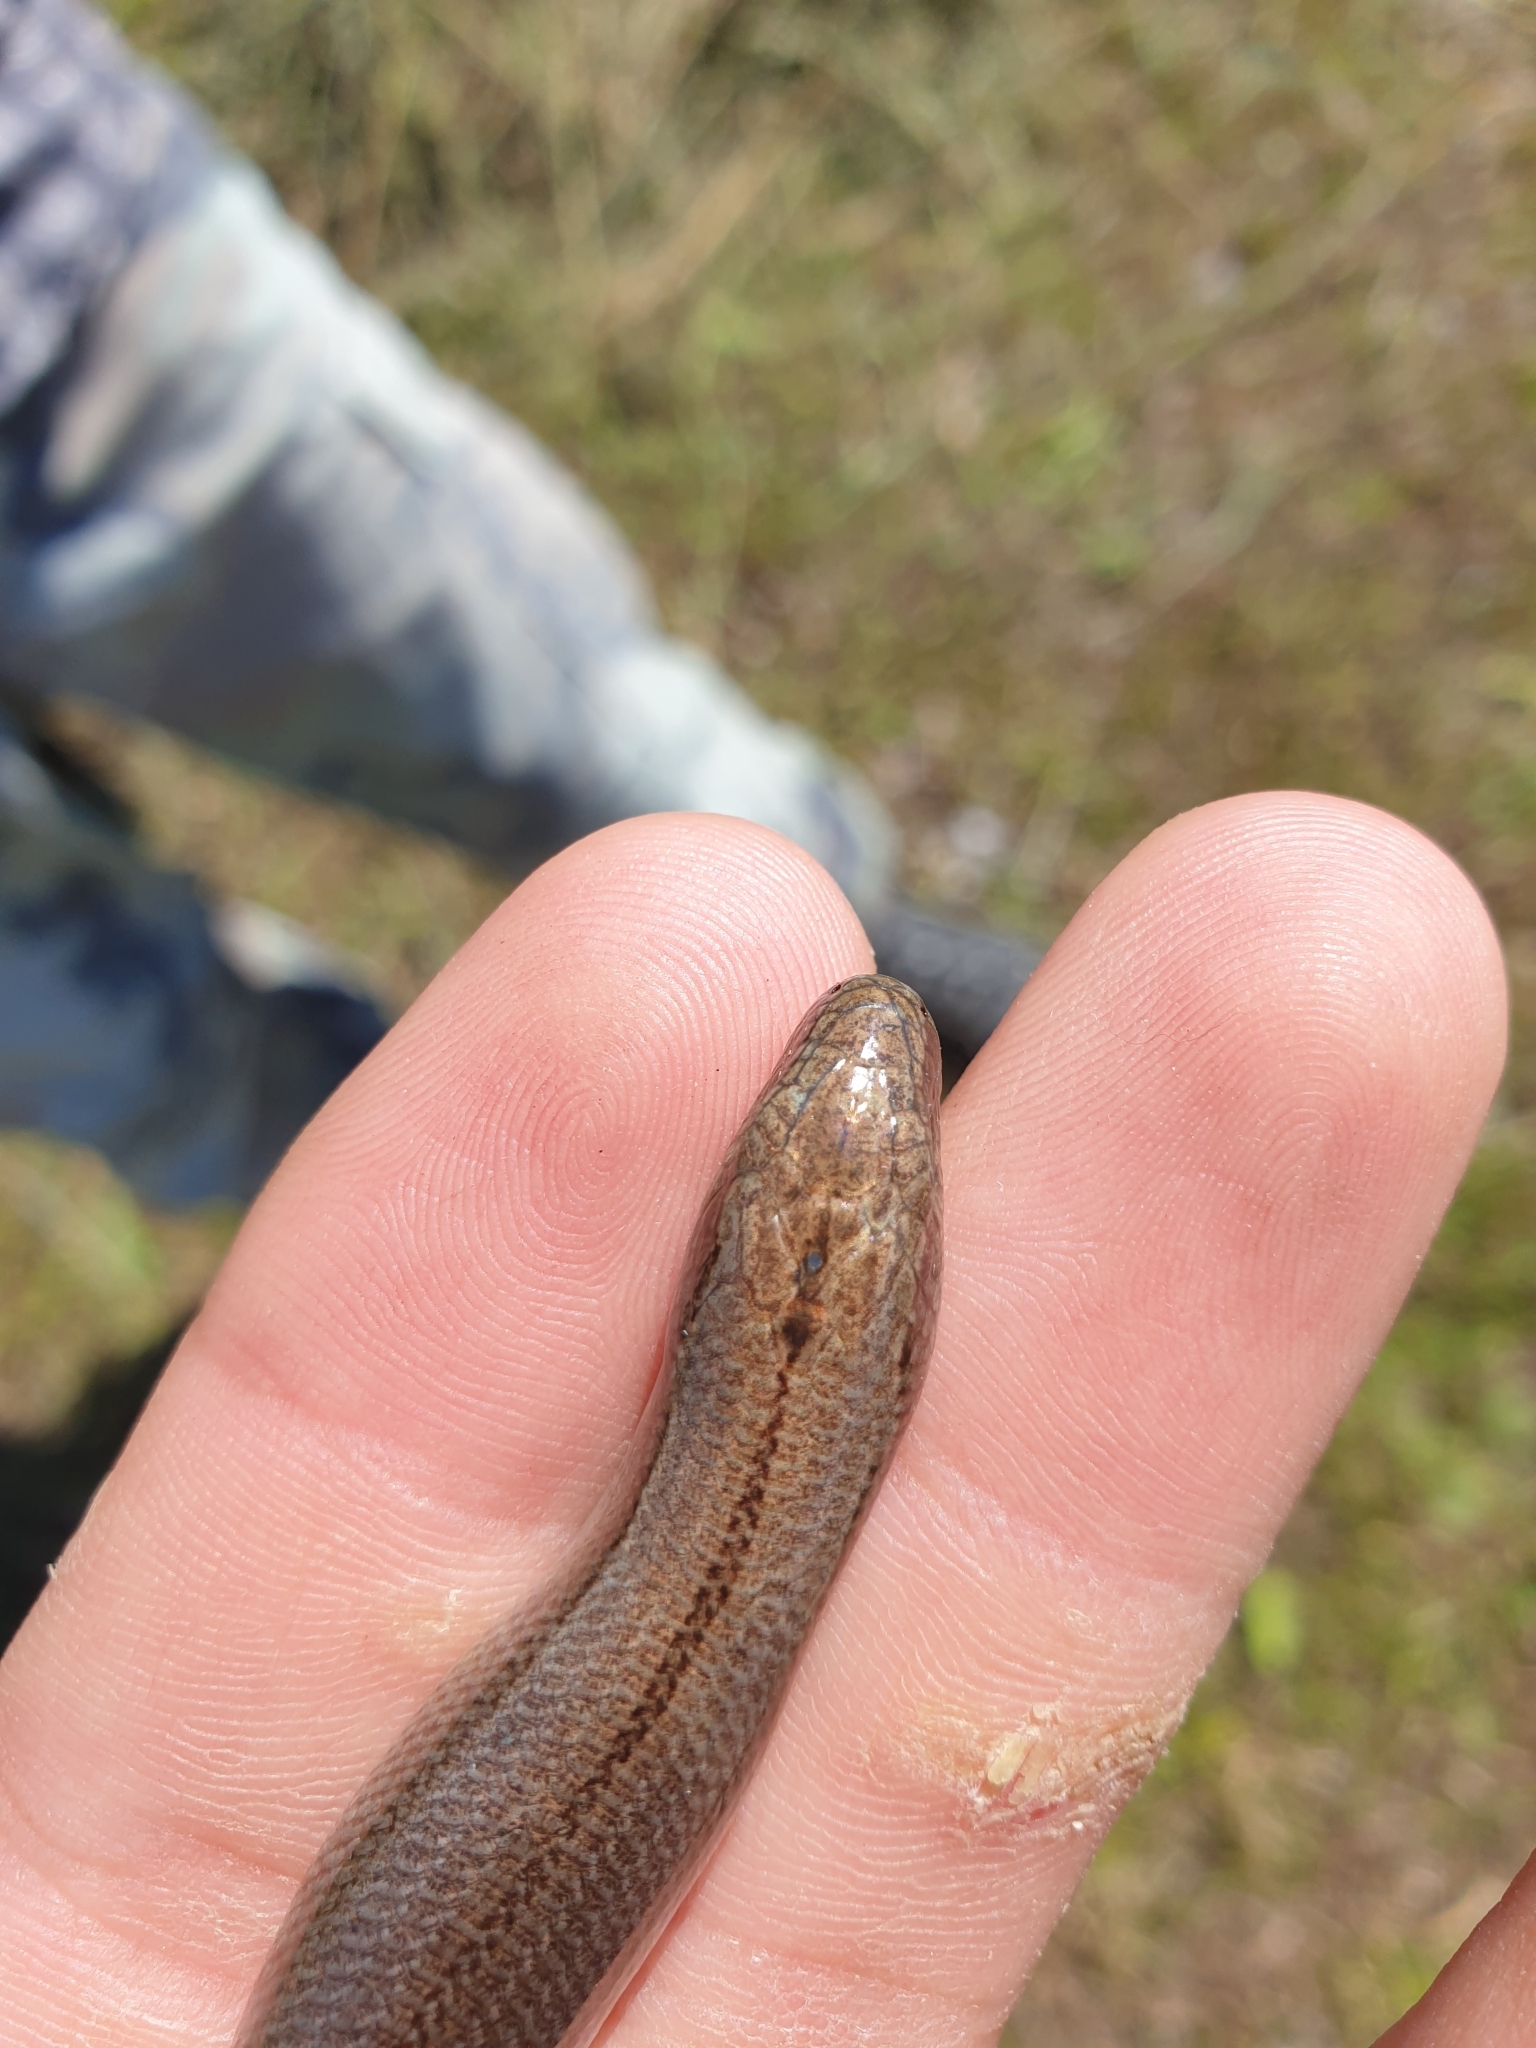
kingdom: Animalia
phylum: Chordata
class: Squamata
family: Anguidae
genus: Anguis
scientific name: Anguis colchica
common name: Slow worm
